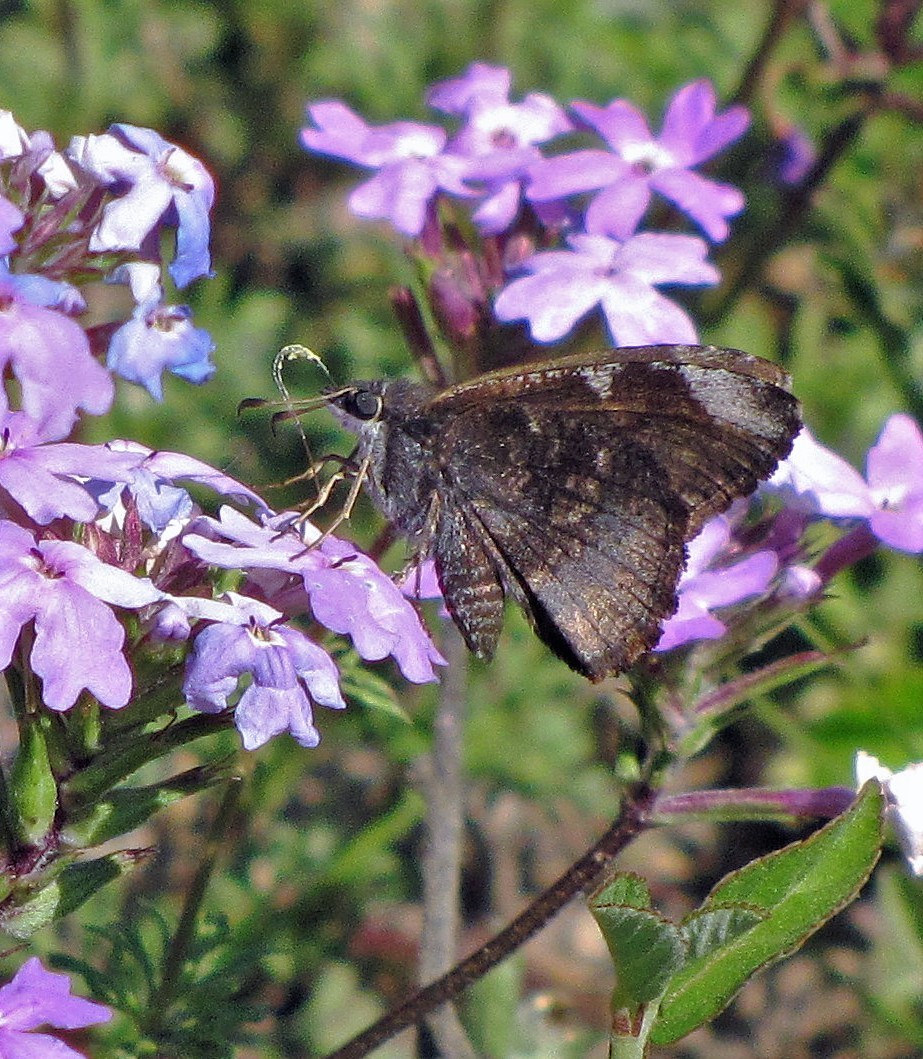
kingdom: Animalia
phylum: Arthropoda
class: Insecta
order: Lepidoptera
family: Hesperiidae
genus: Caicella
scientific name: Caicella calchas
